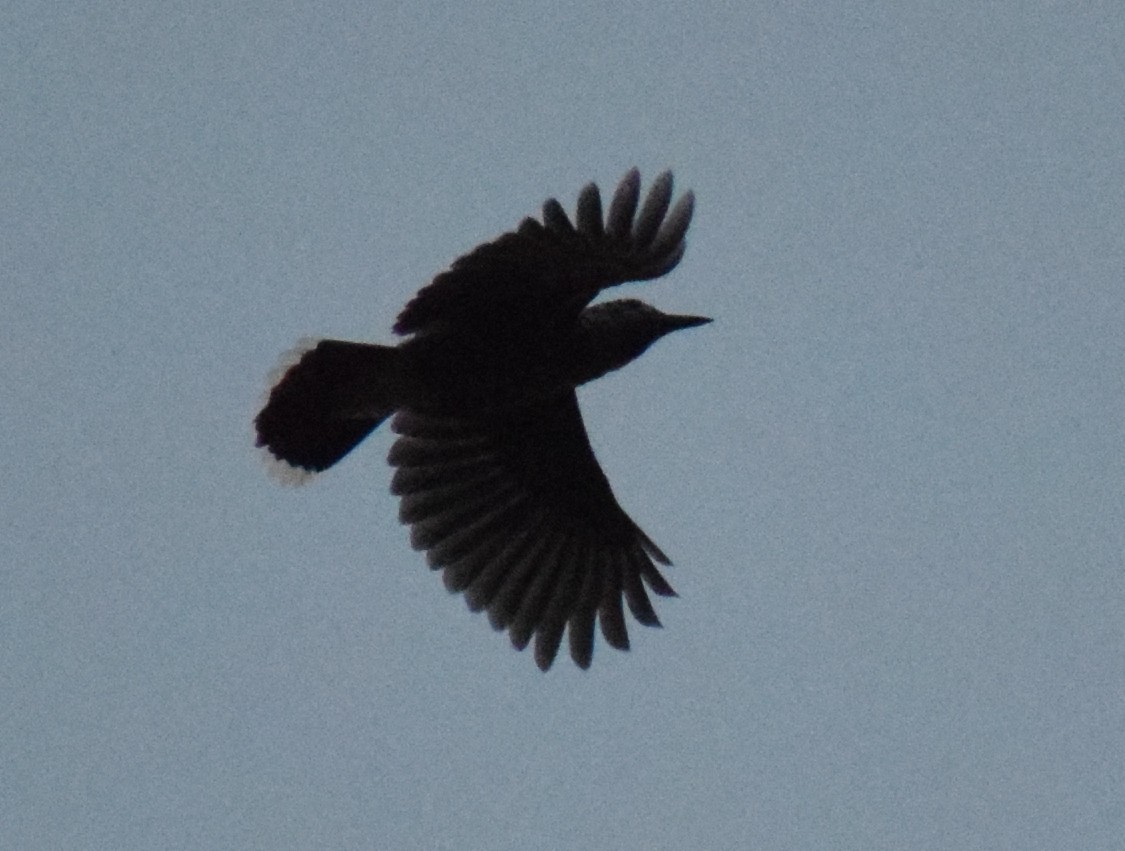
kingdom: Animalia
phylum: Chordata
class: Aves
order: Passeriformes
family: Corvidae
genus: Nucifraga
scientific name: Nucifraga caryocatactes
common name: Spotted nutcracker
